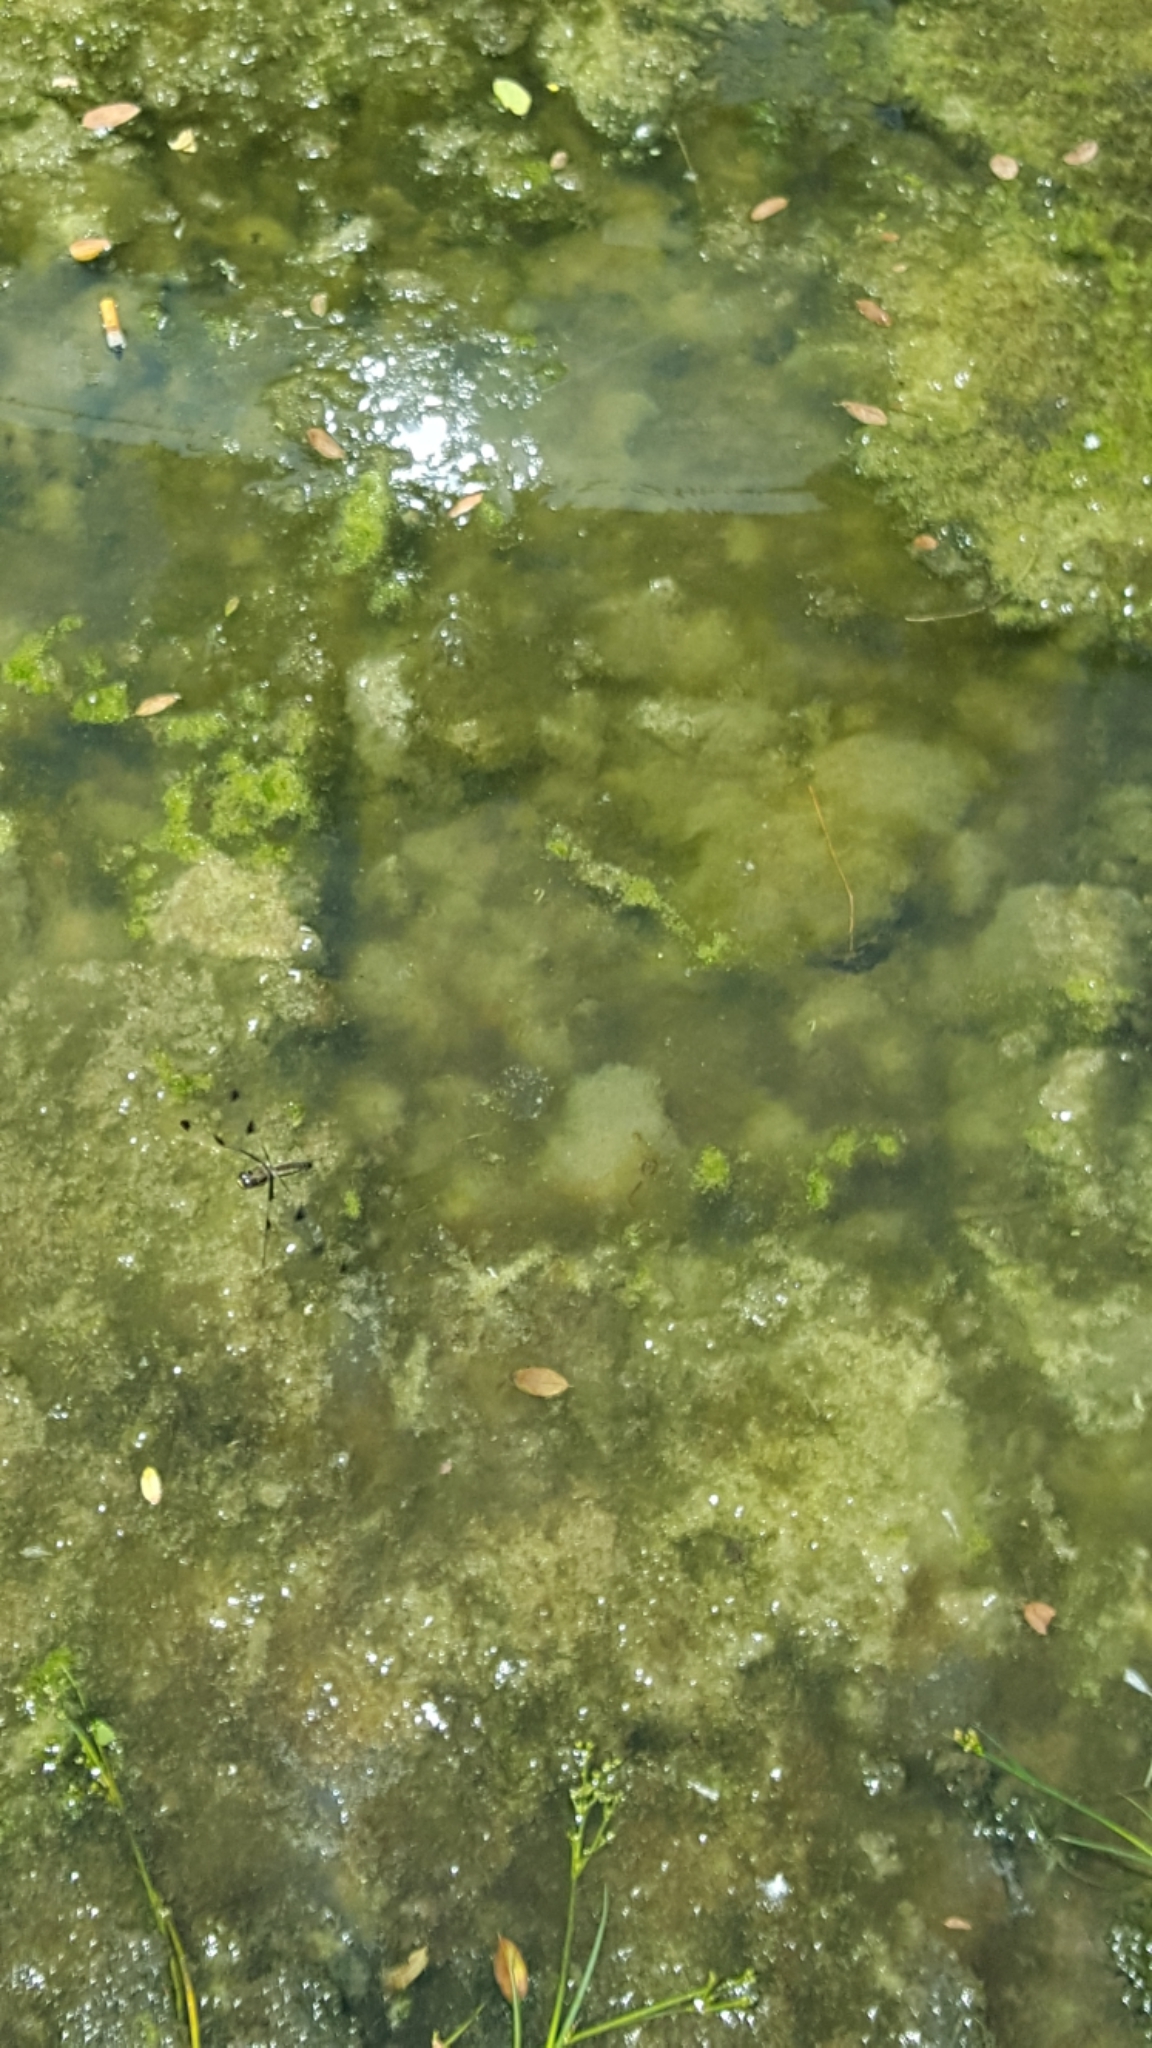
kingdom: Animalia
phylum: Arthropoda
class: Insecta
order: Odonata
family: Libellulidae
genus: Libellula
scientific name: Libellula pulchella
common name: Twelve-spotted skimmer
